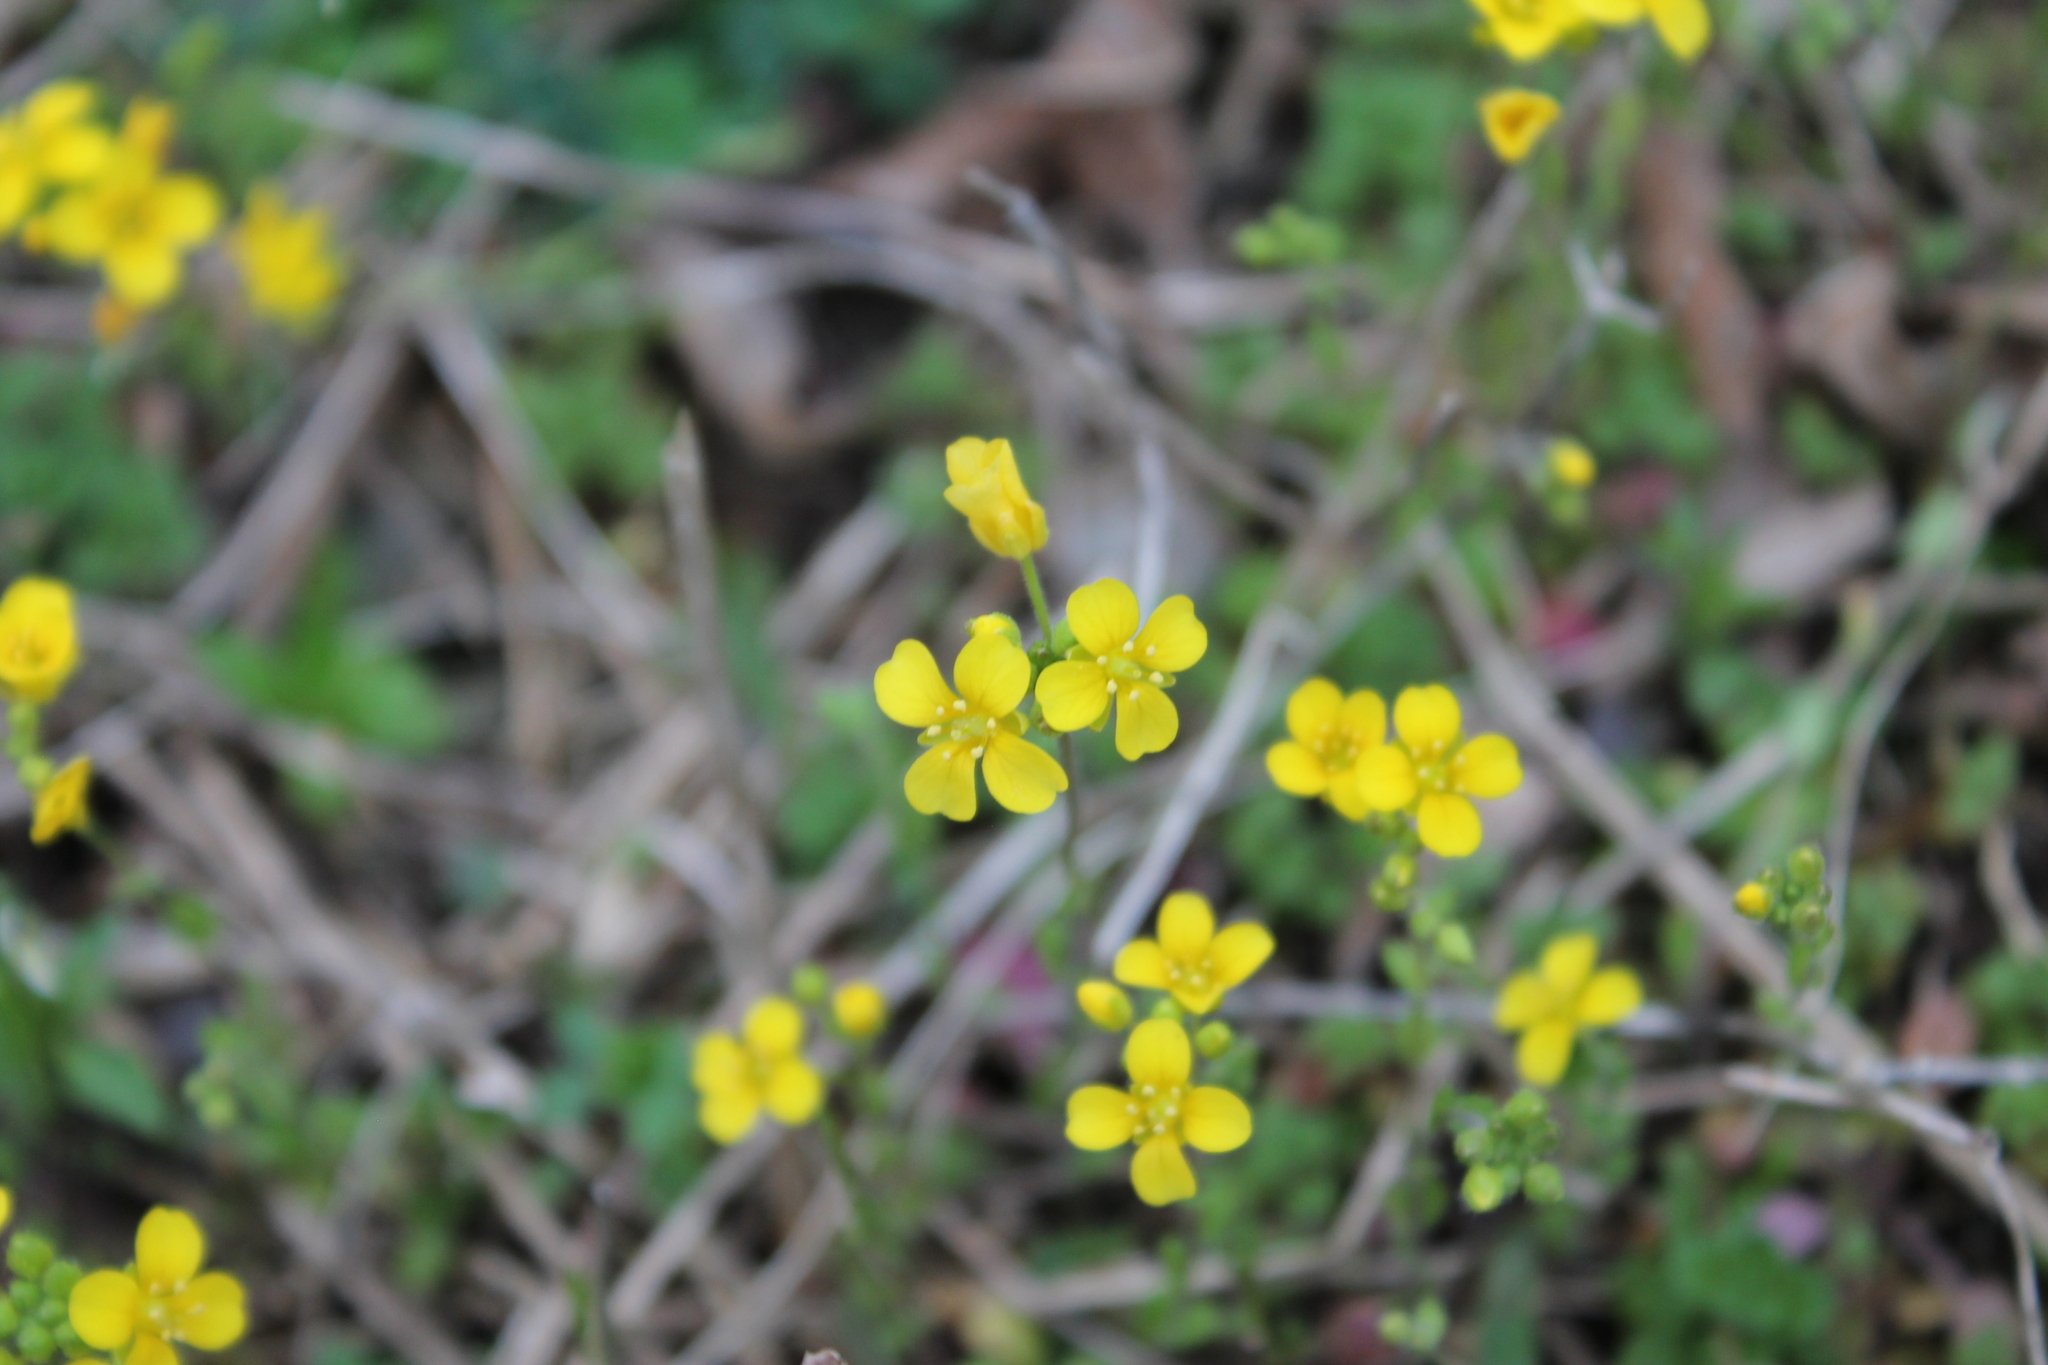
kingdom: Plantae
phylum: Tracheophyta
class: Magnoliopsida
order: Brassicales
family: Brassicaceae
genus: Paysonia
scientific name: Paysonia lescurii
